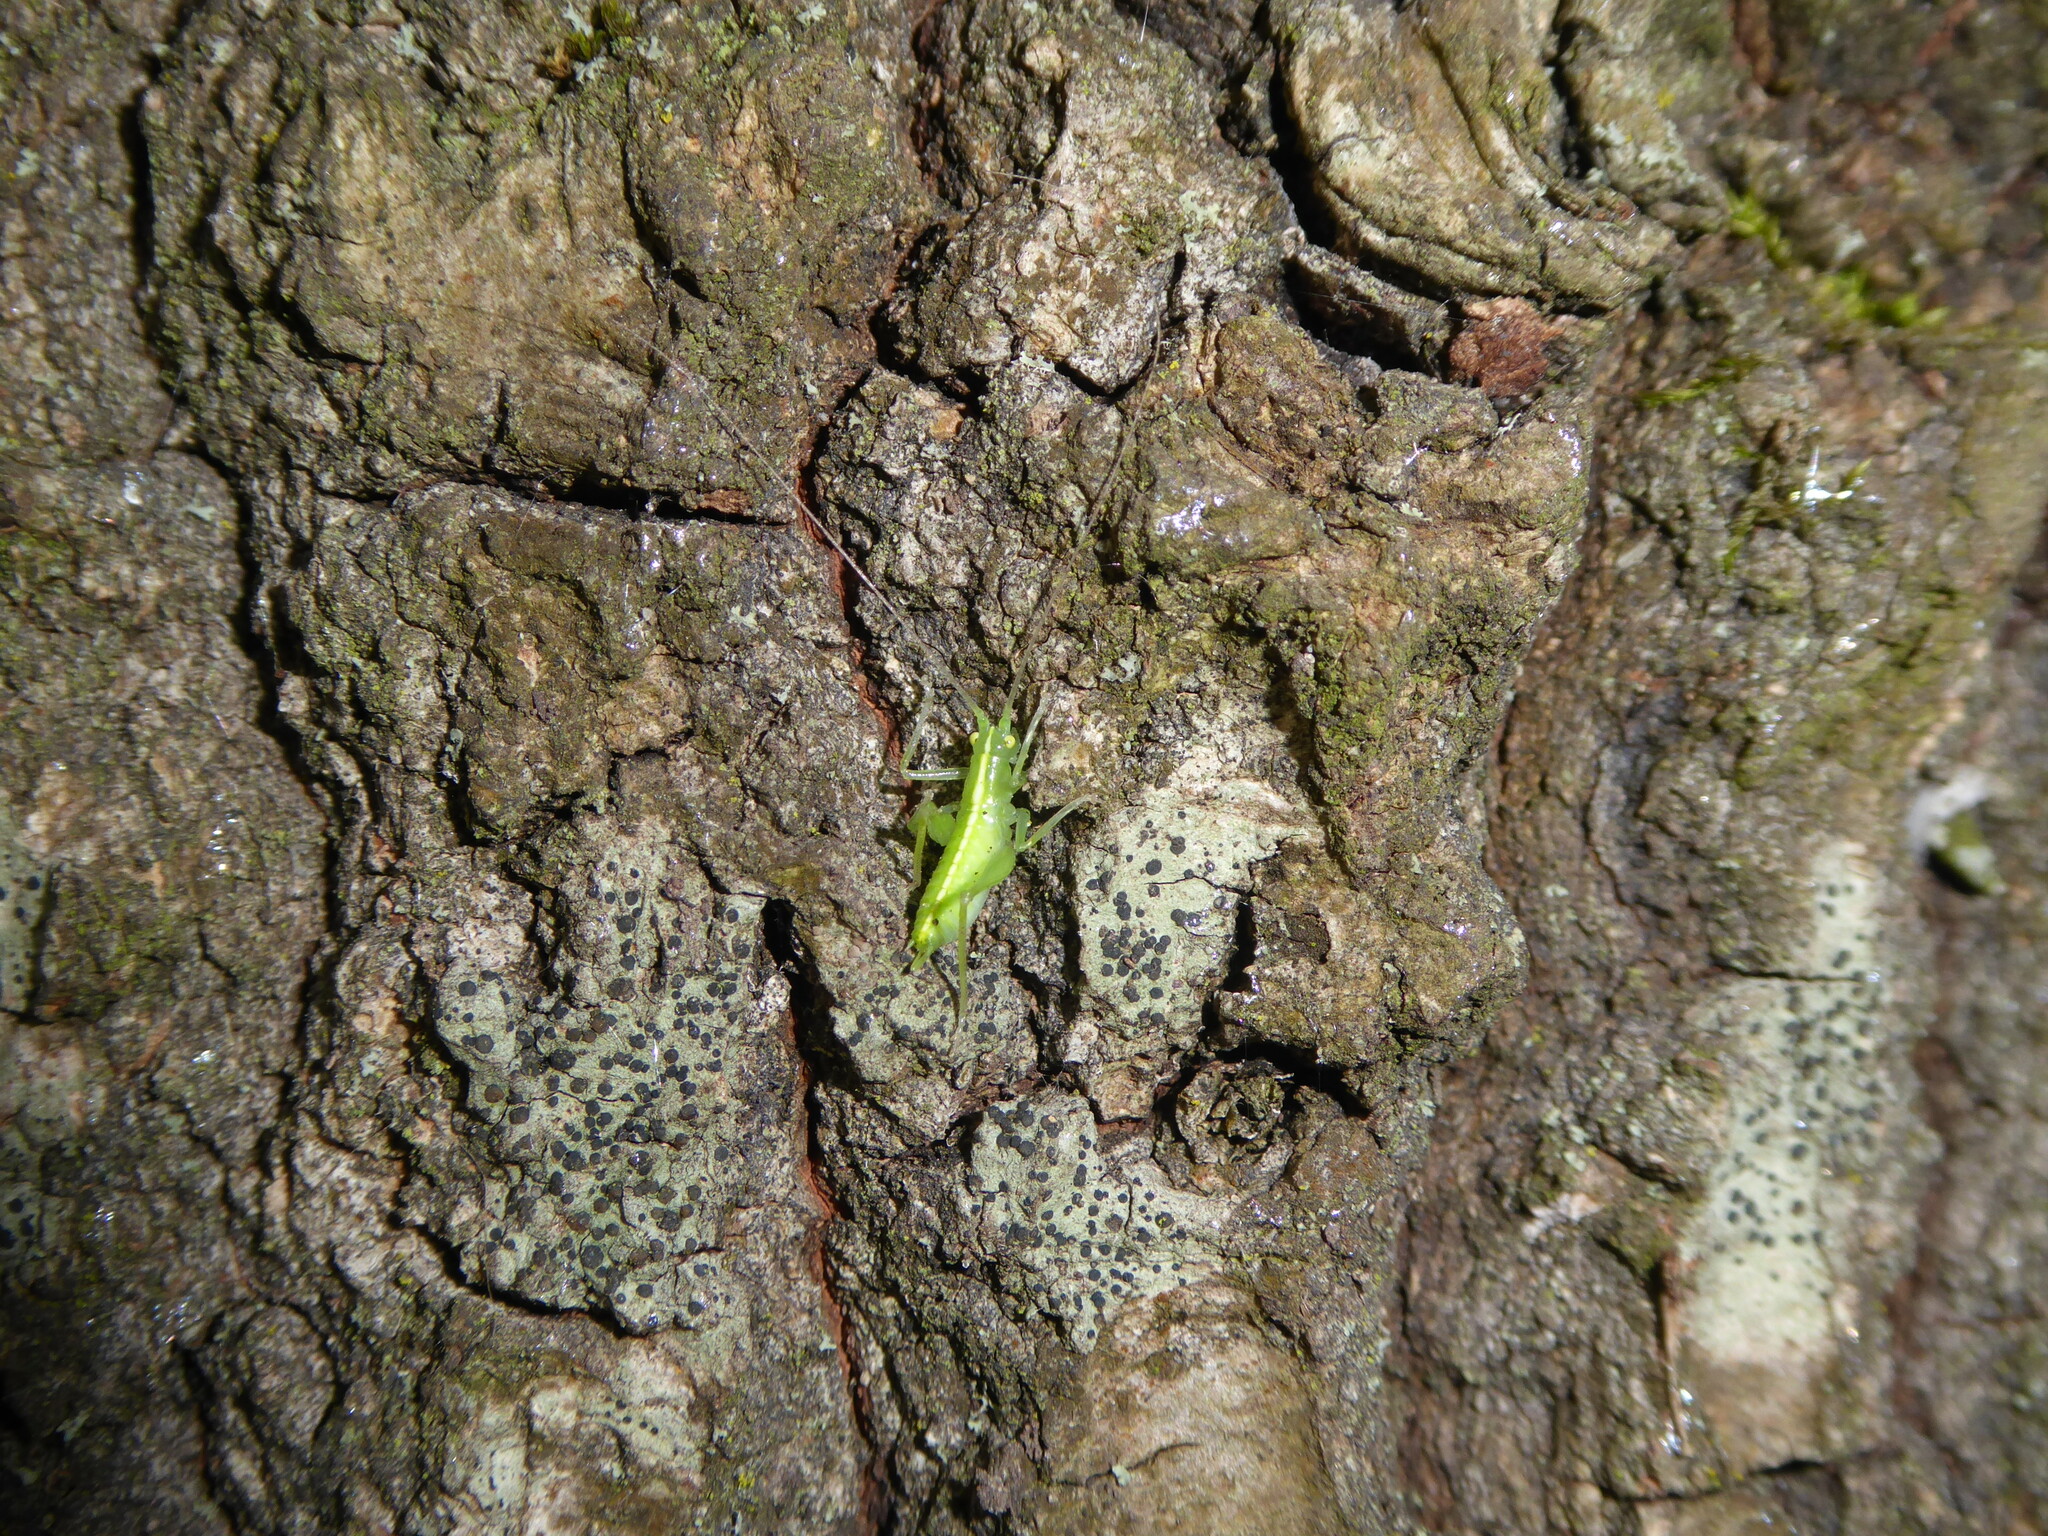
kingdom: Animalia
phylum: Arthropoda
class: Insecta
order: Orthoptera
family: Tettigoniidae
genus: Meconema
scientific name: Meconema
